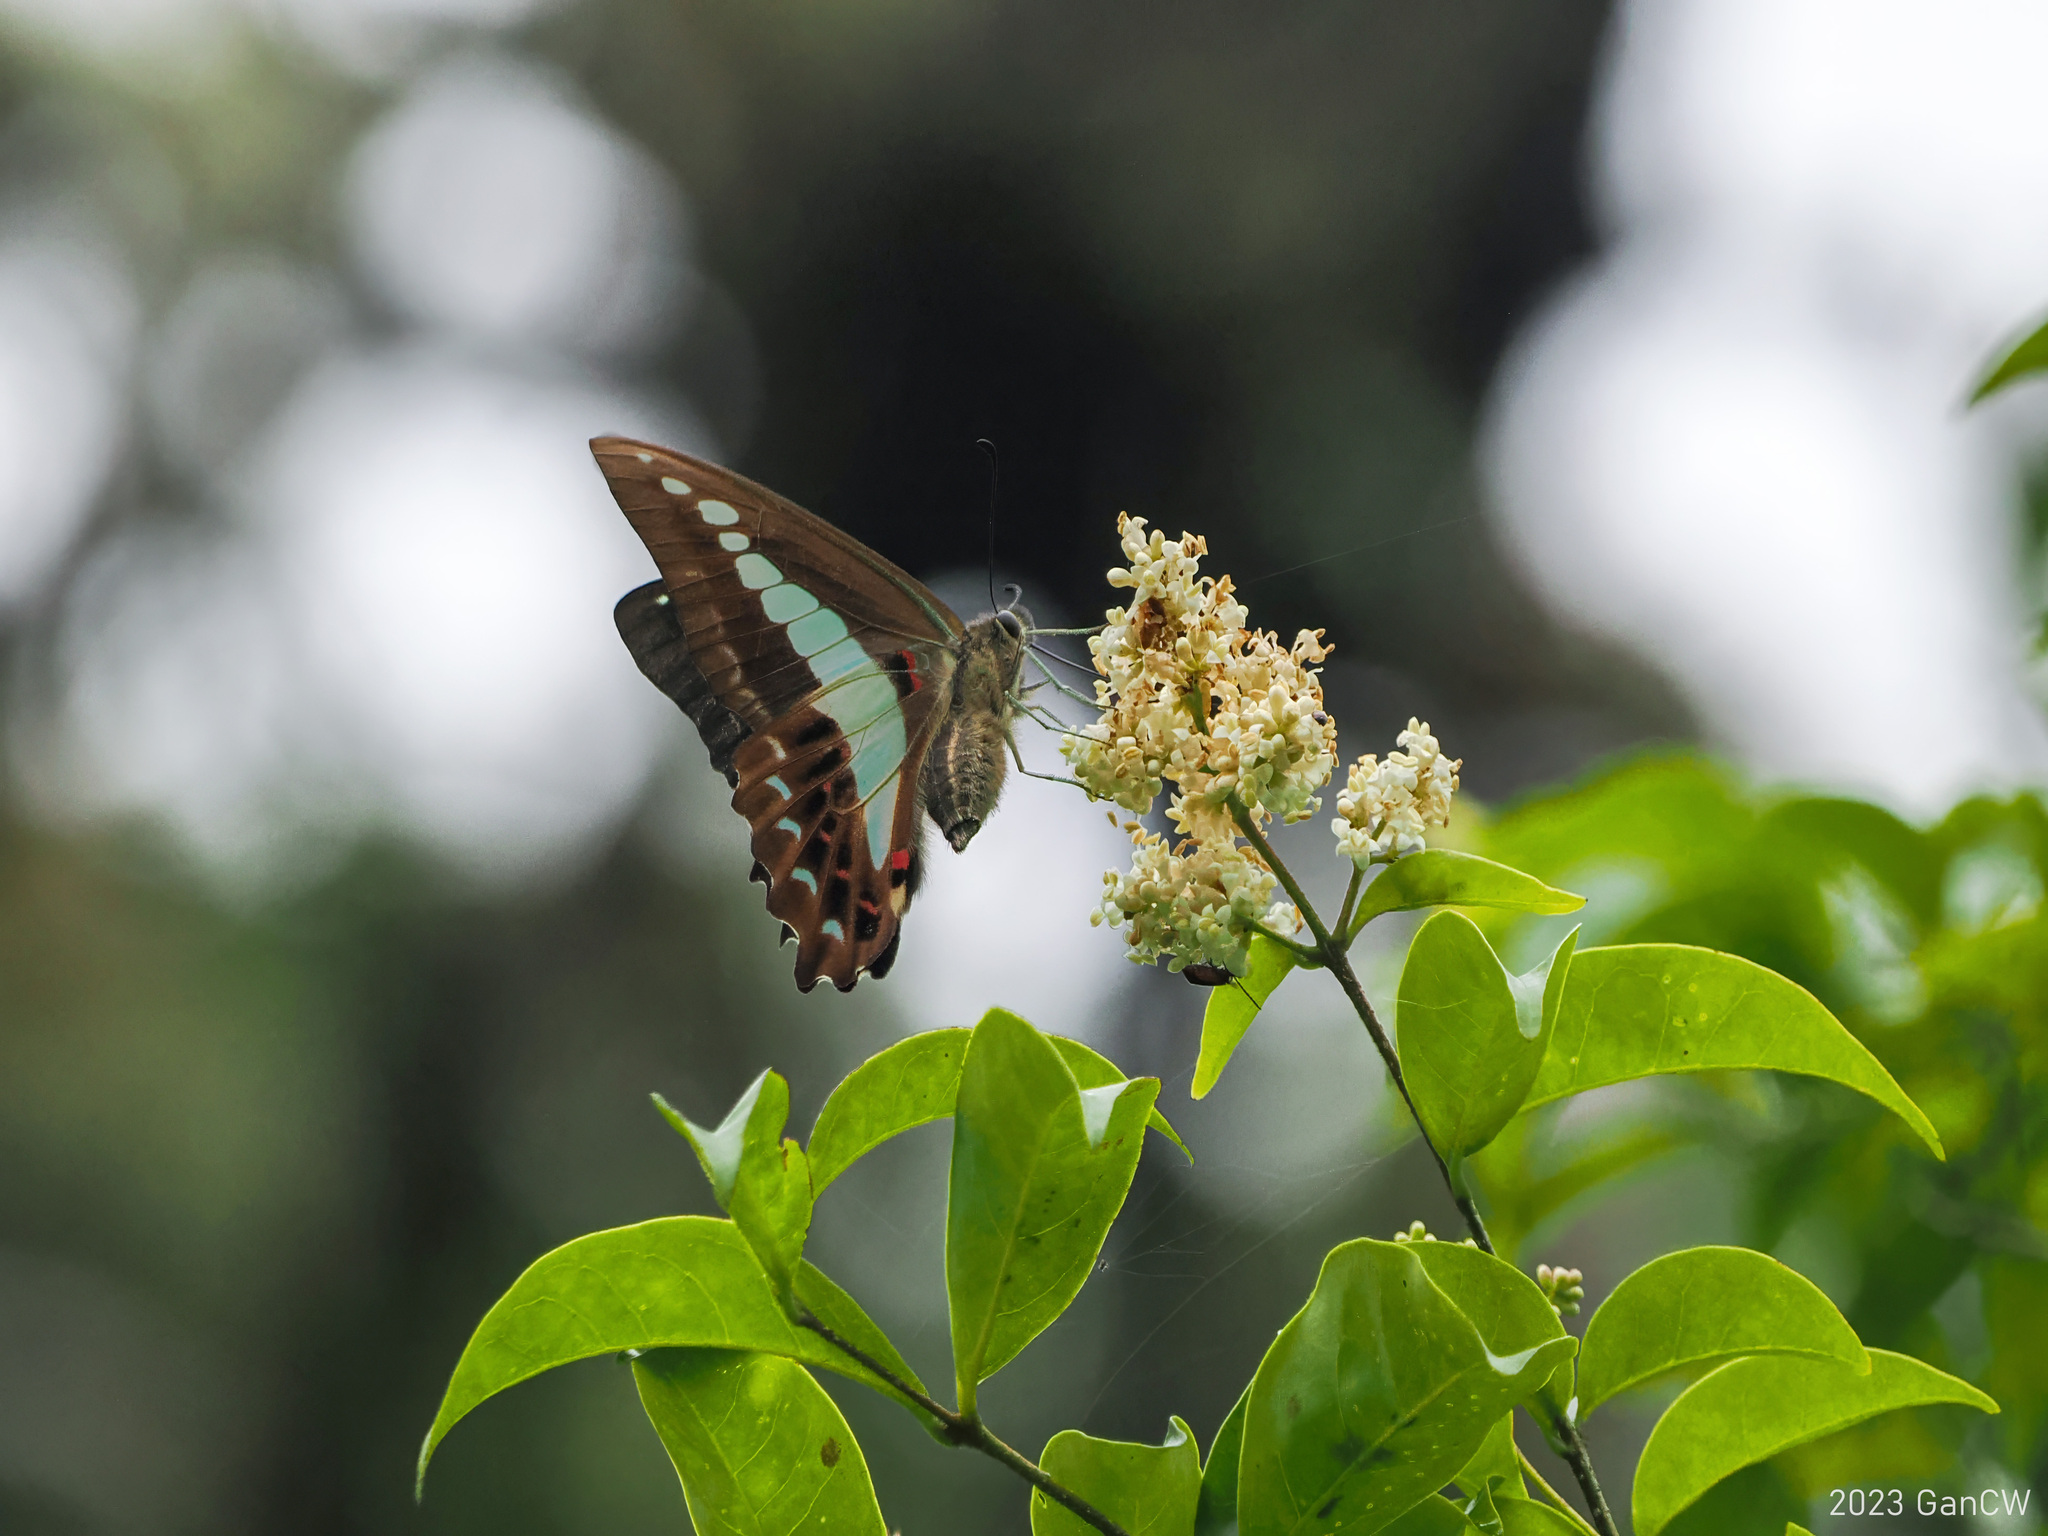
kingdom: Animalia
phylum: Arthropoda
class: Insecta
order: Lepidoptera
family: Papilionidae
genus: Graphium
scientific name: Graphium monticolus
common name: Sulawesi blue triangle
